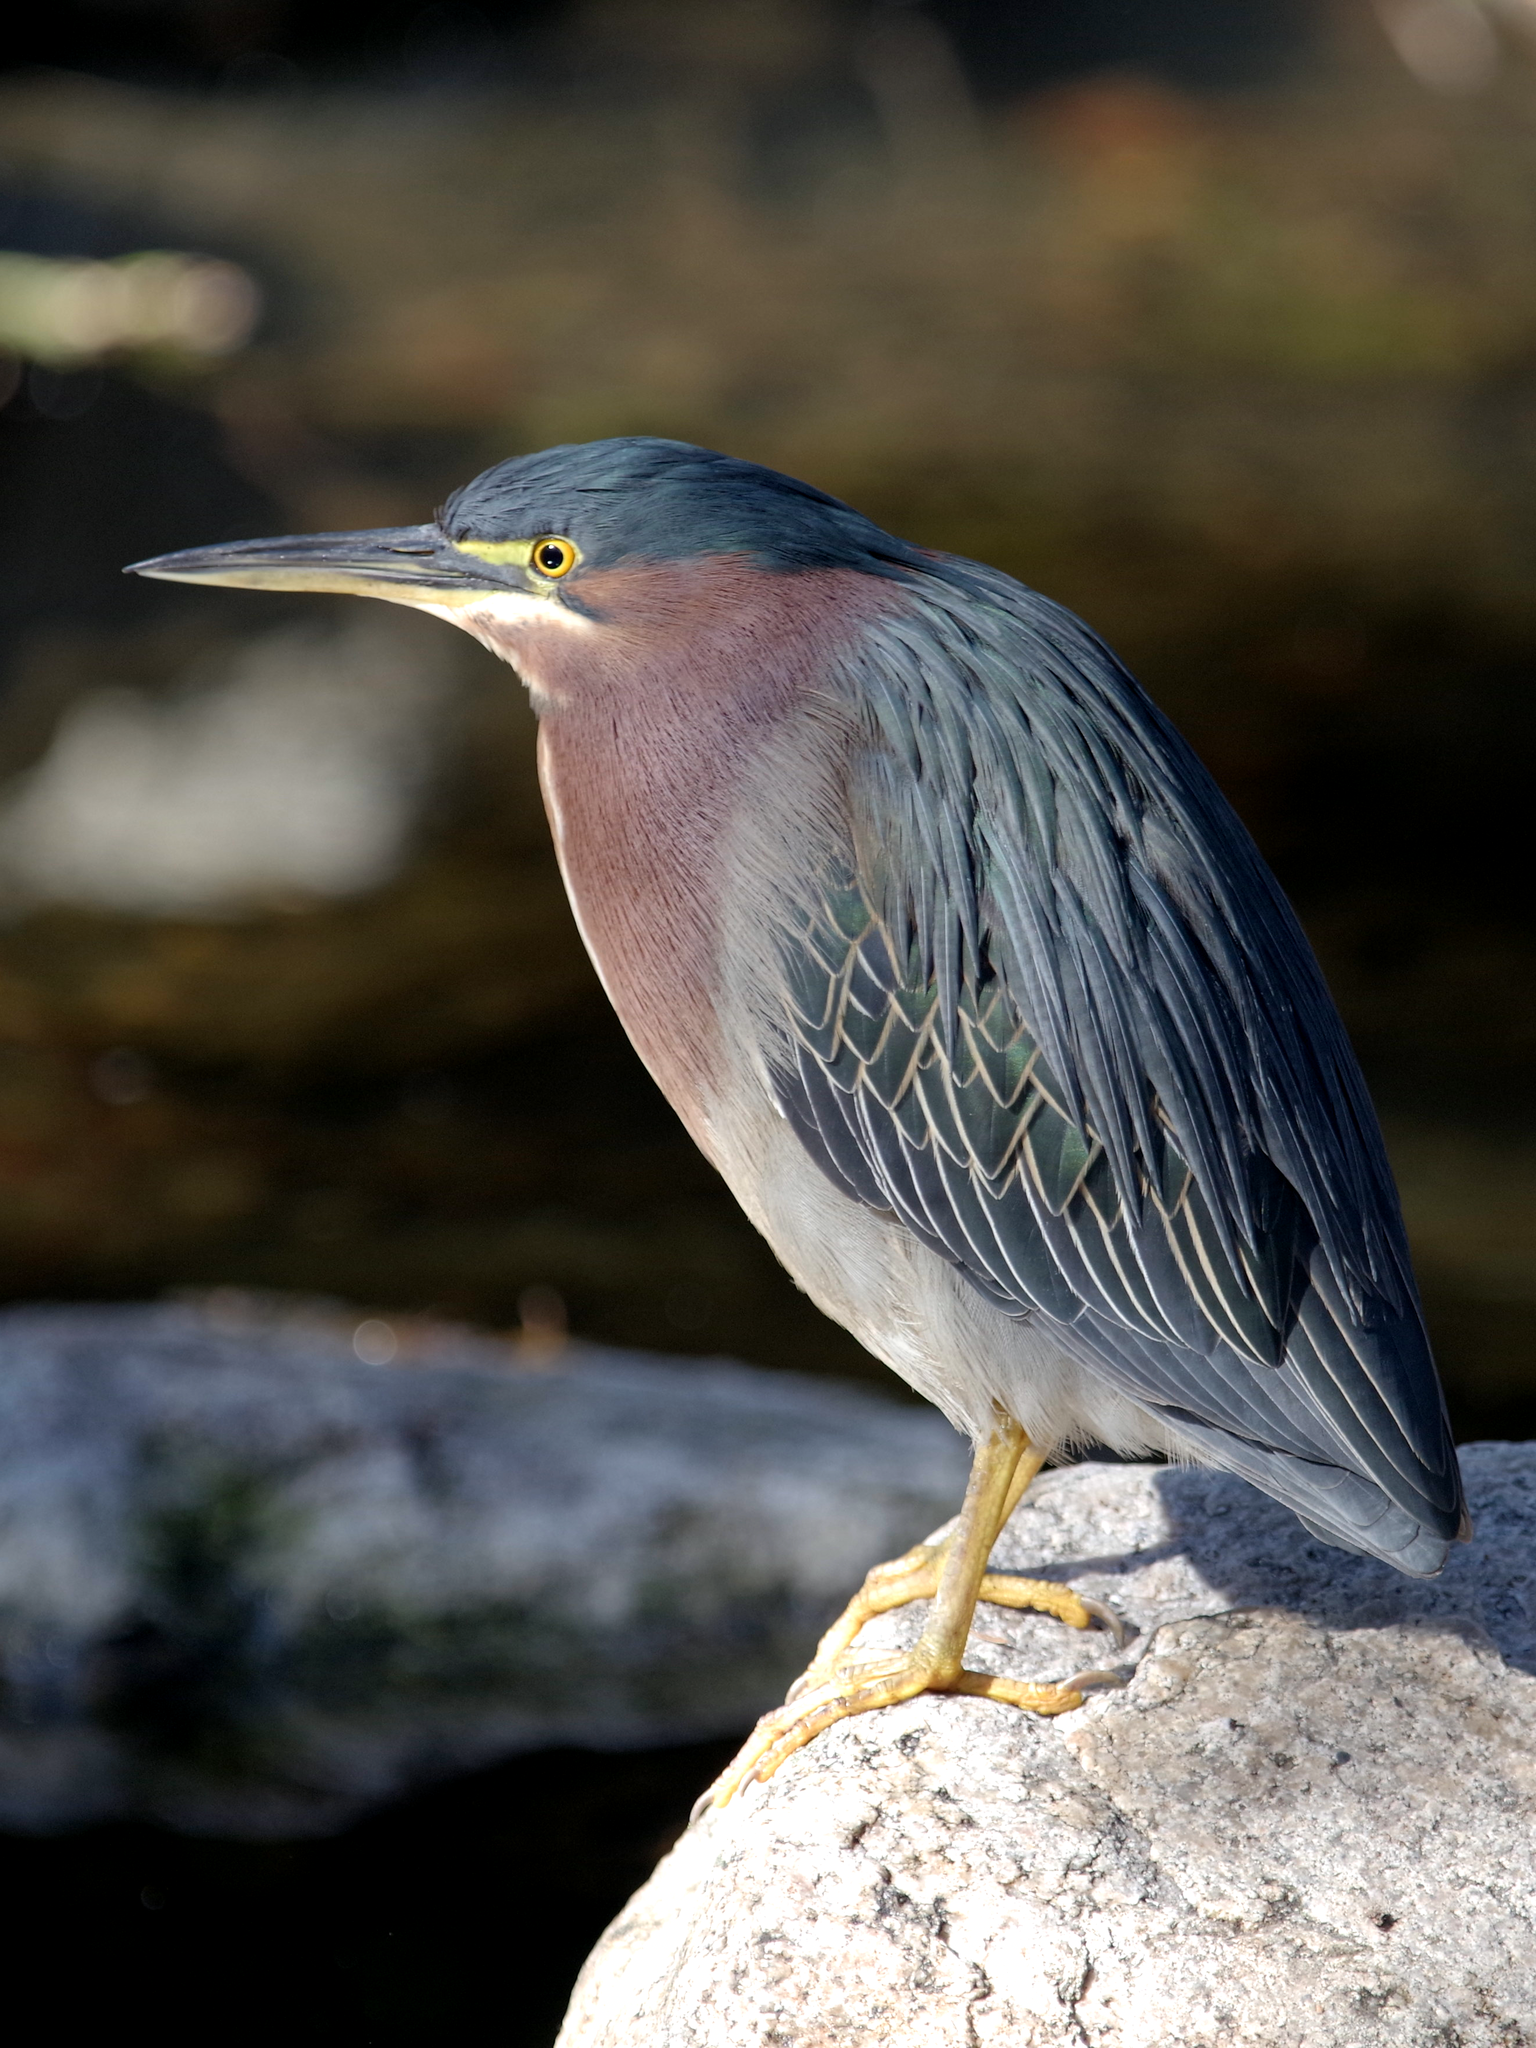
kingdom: Animalia
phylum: Chordata
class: Aves
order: Pelecaniformes
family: Ardeidae
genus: Butorides
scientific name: Butorides virescens
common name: Green heron
